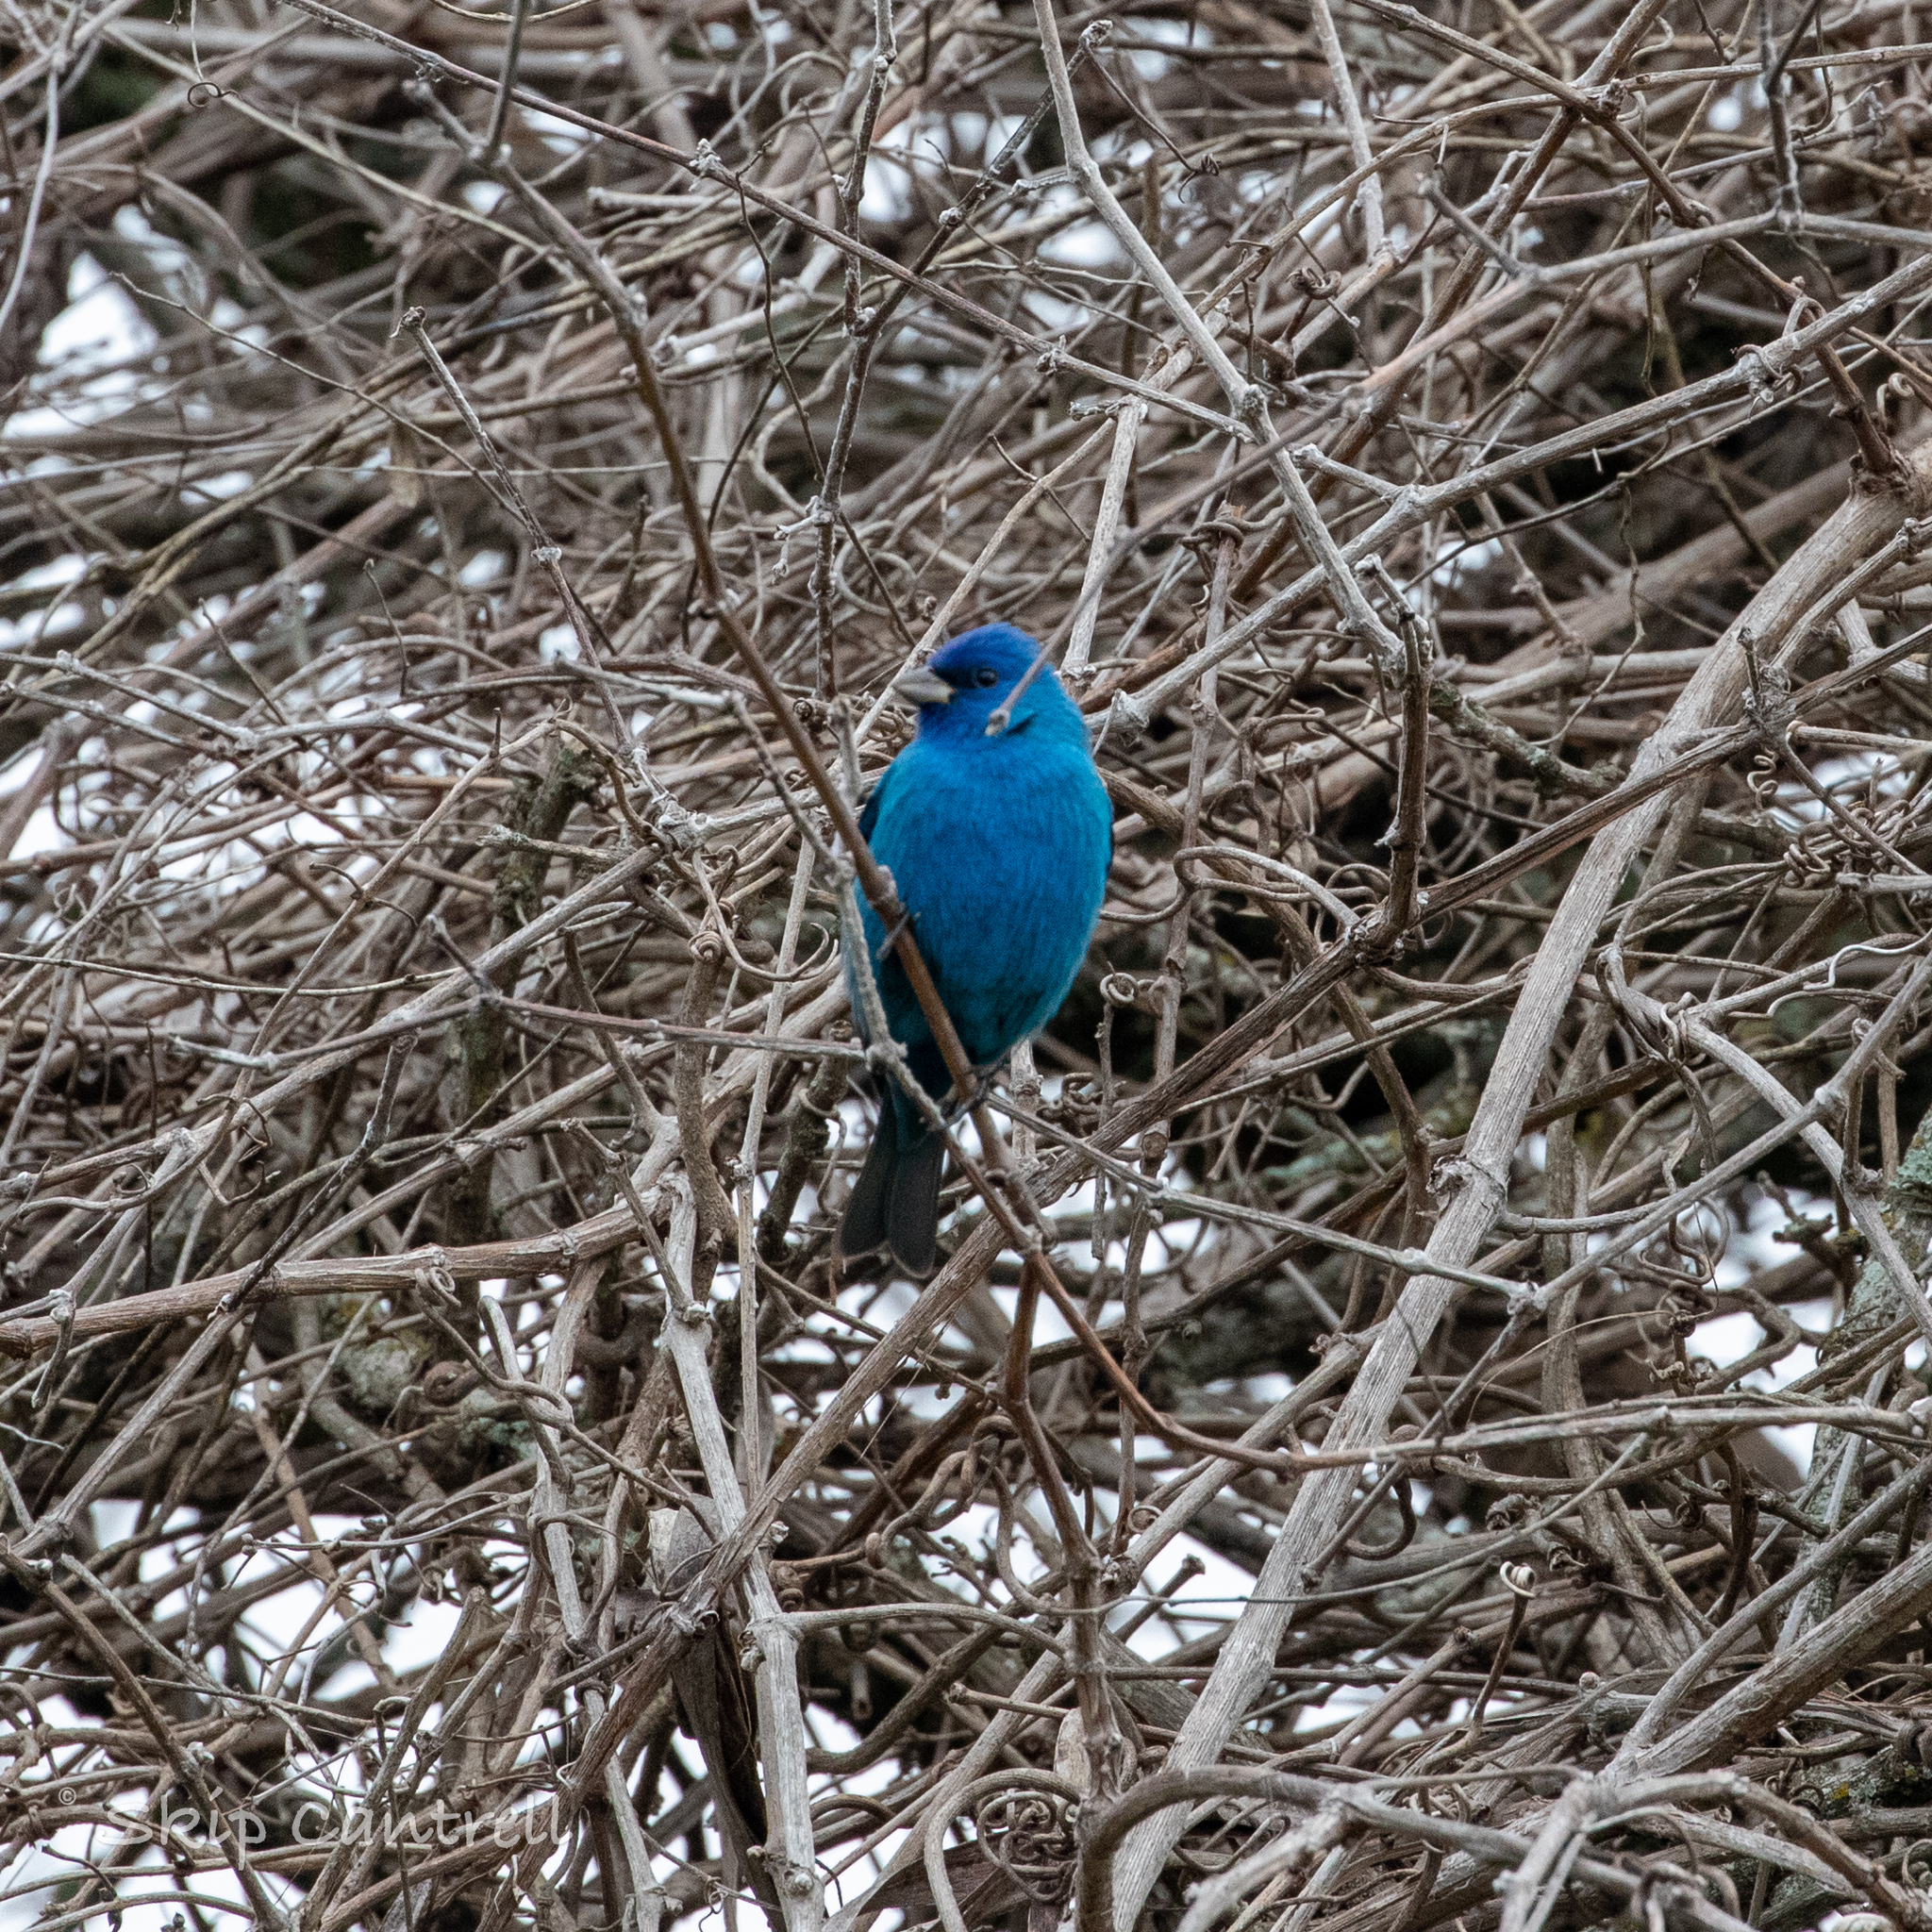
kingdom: Animalia
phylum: Chordata
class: Aves
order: Passeriformes
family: Cardinalidae
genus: Passerina
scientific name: Passerina cyanea
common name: Indigo bunting
